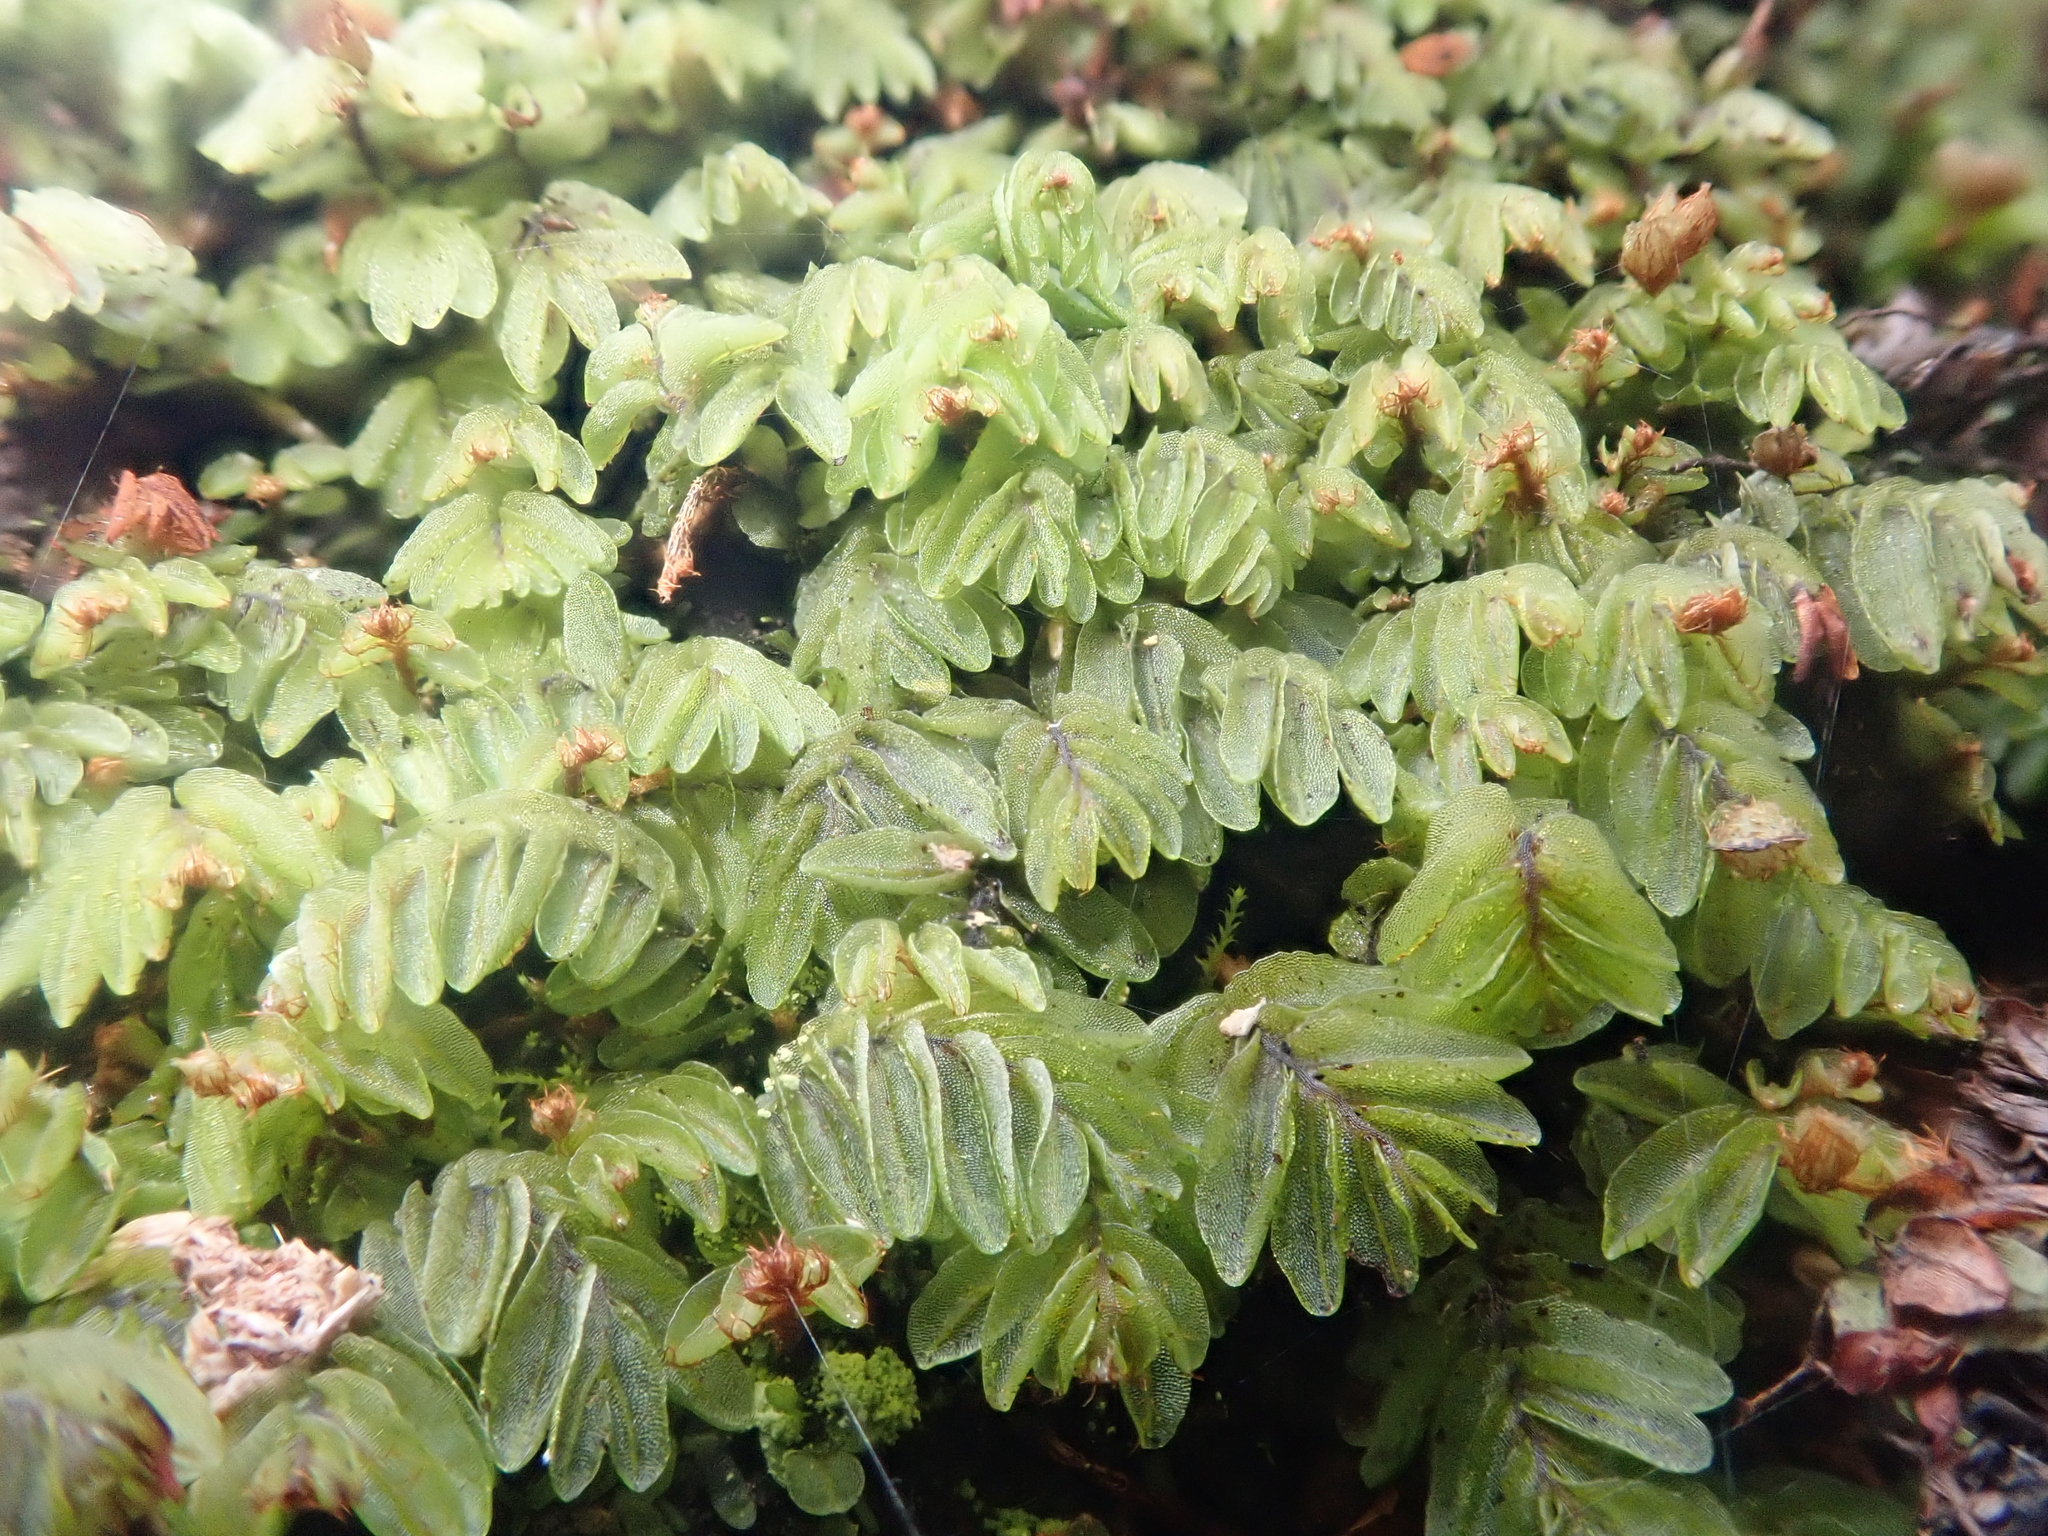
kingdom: Plantae
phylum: Tracheophyta
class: Polypodiopsida
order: Hymenophyllales
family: Hymenophyllaceae
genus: Hymenophyllum
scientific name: Hymenophyllum caespitosum
